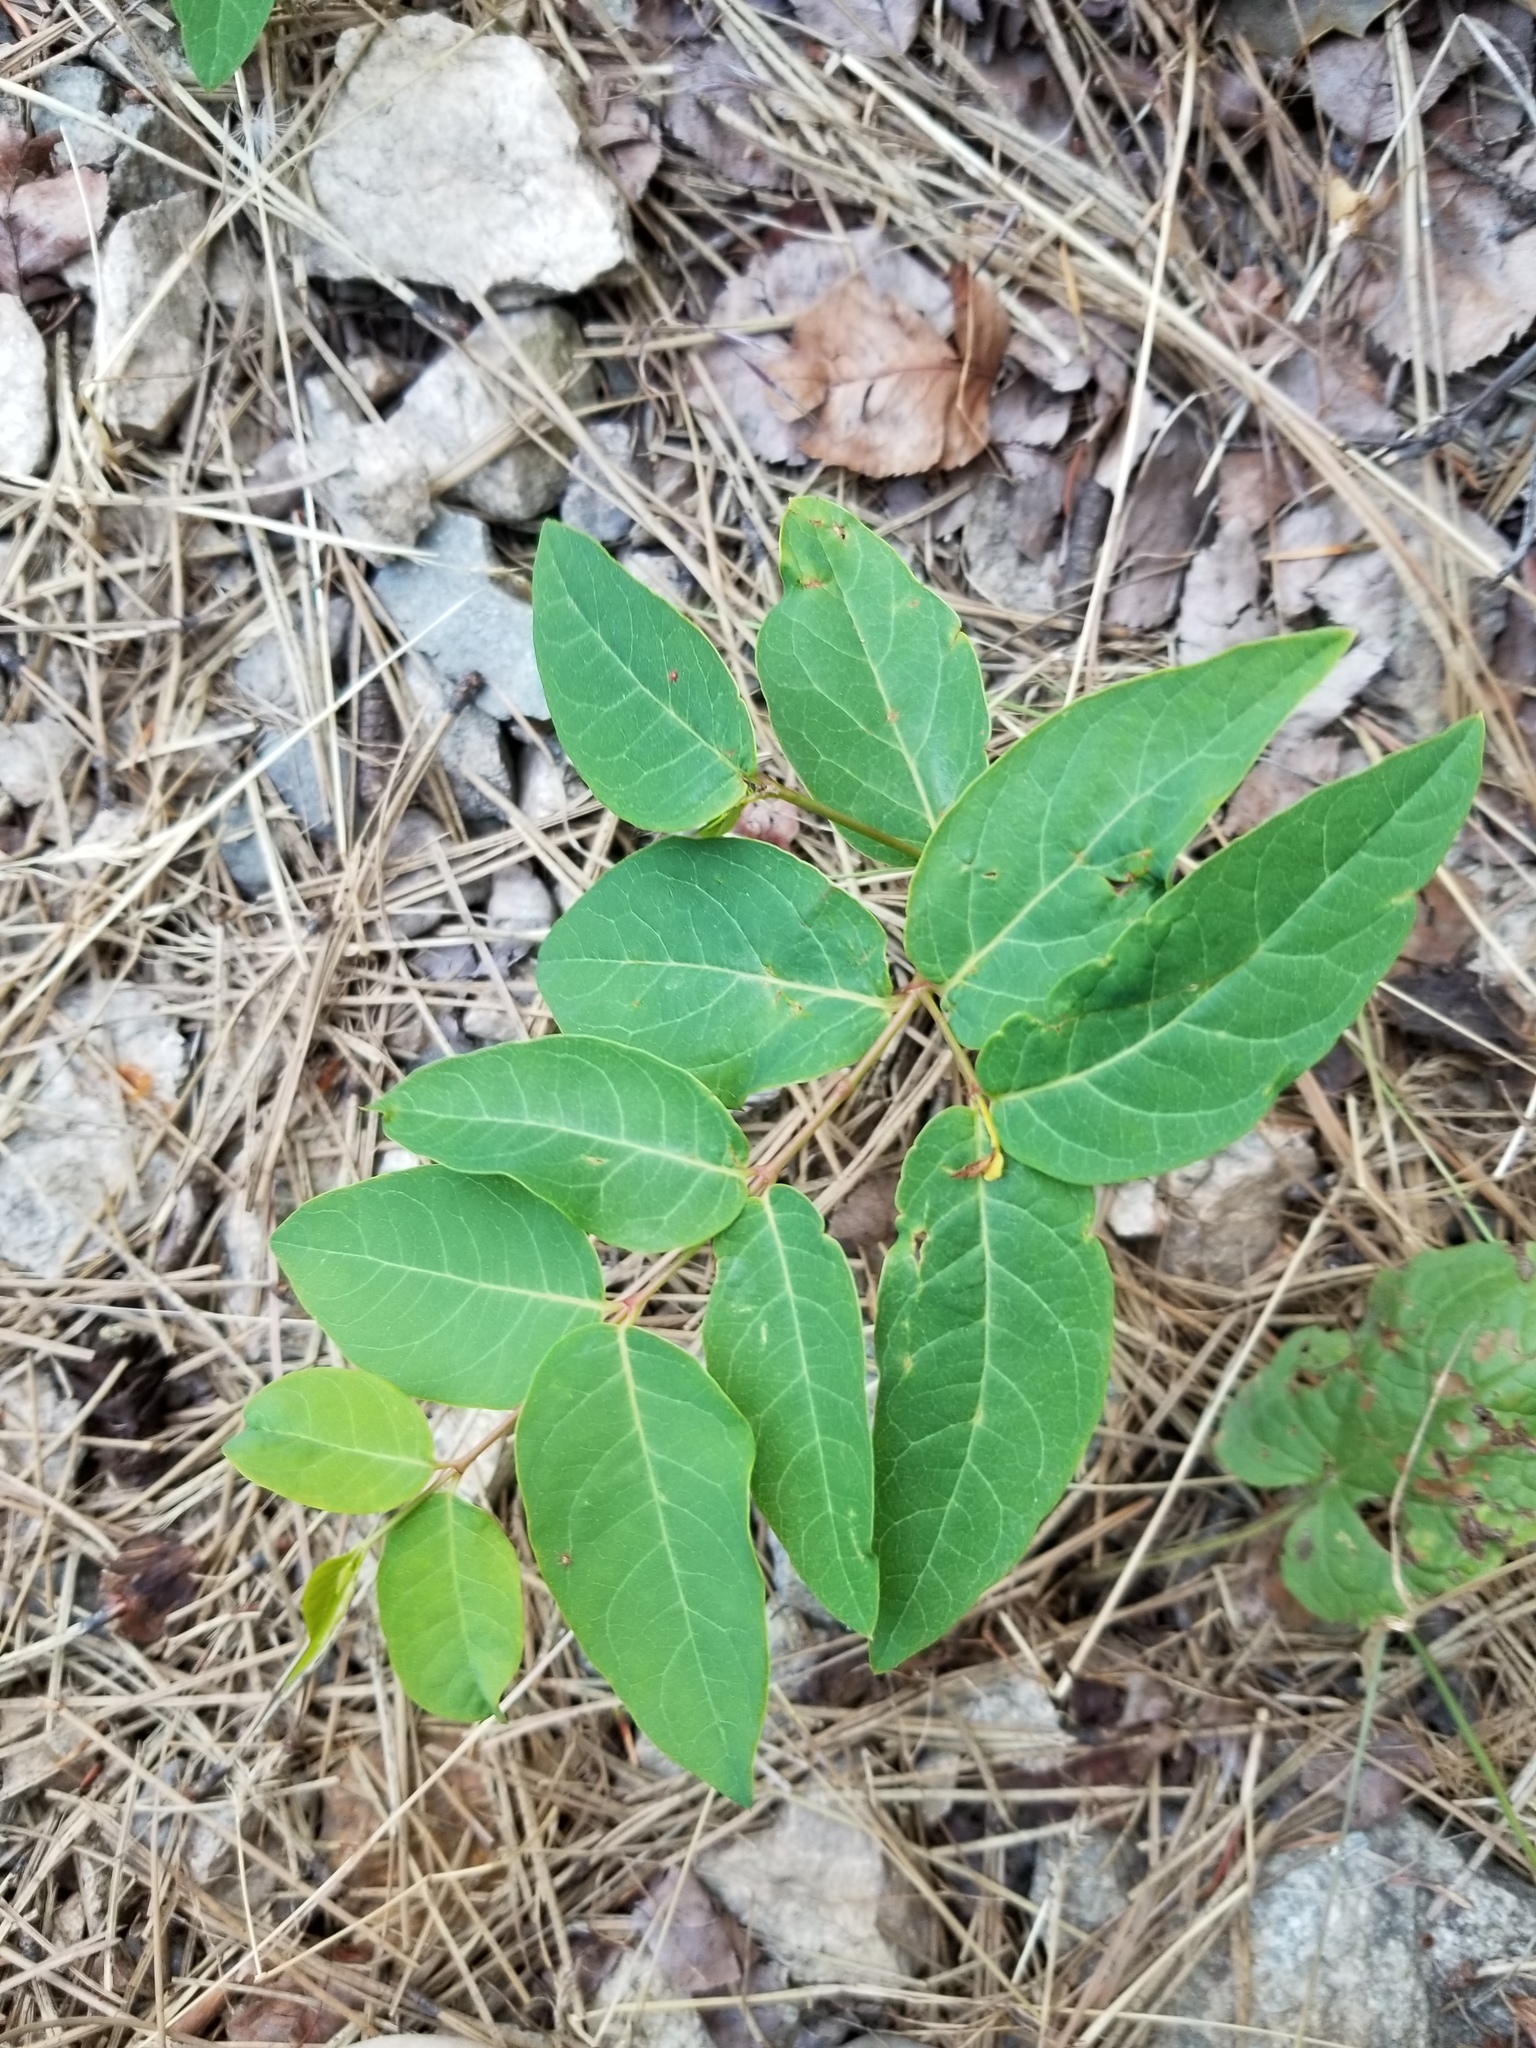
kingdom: Plantae
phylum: Tracheophyta
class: Magnoliopsida
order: Gentianales
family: Apocynaceae
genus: Apocynum
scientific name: Apocynum androsaemifolium
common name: Spreading dogbane
